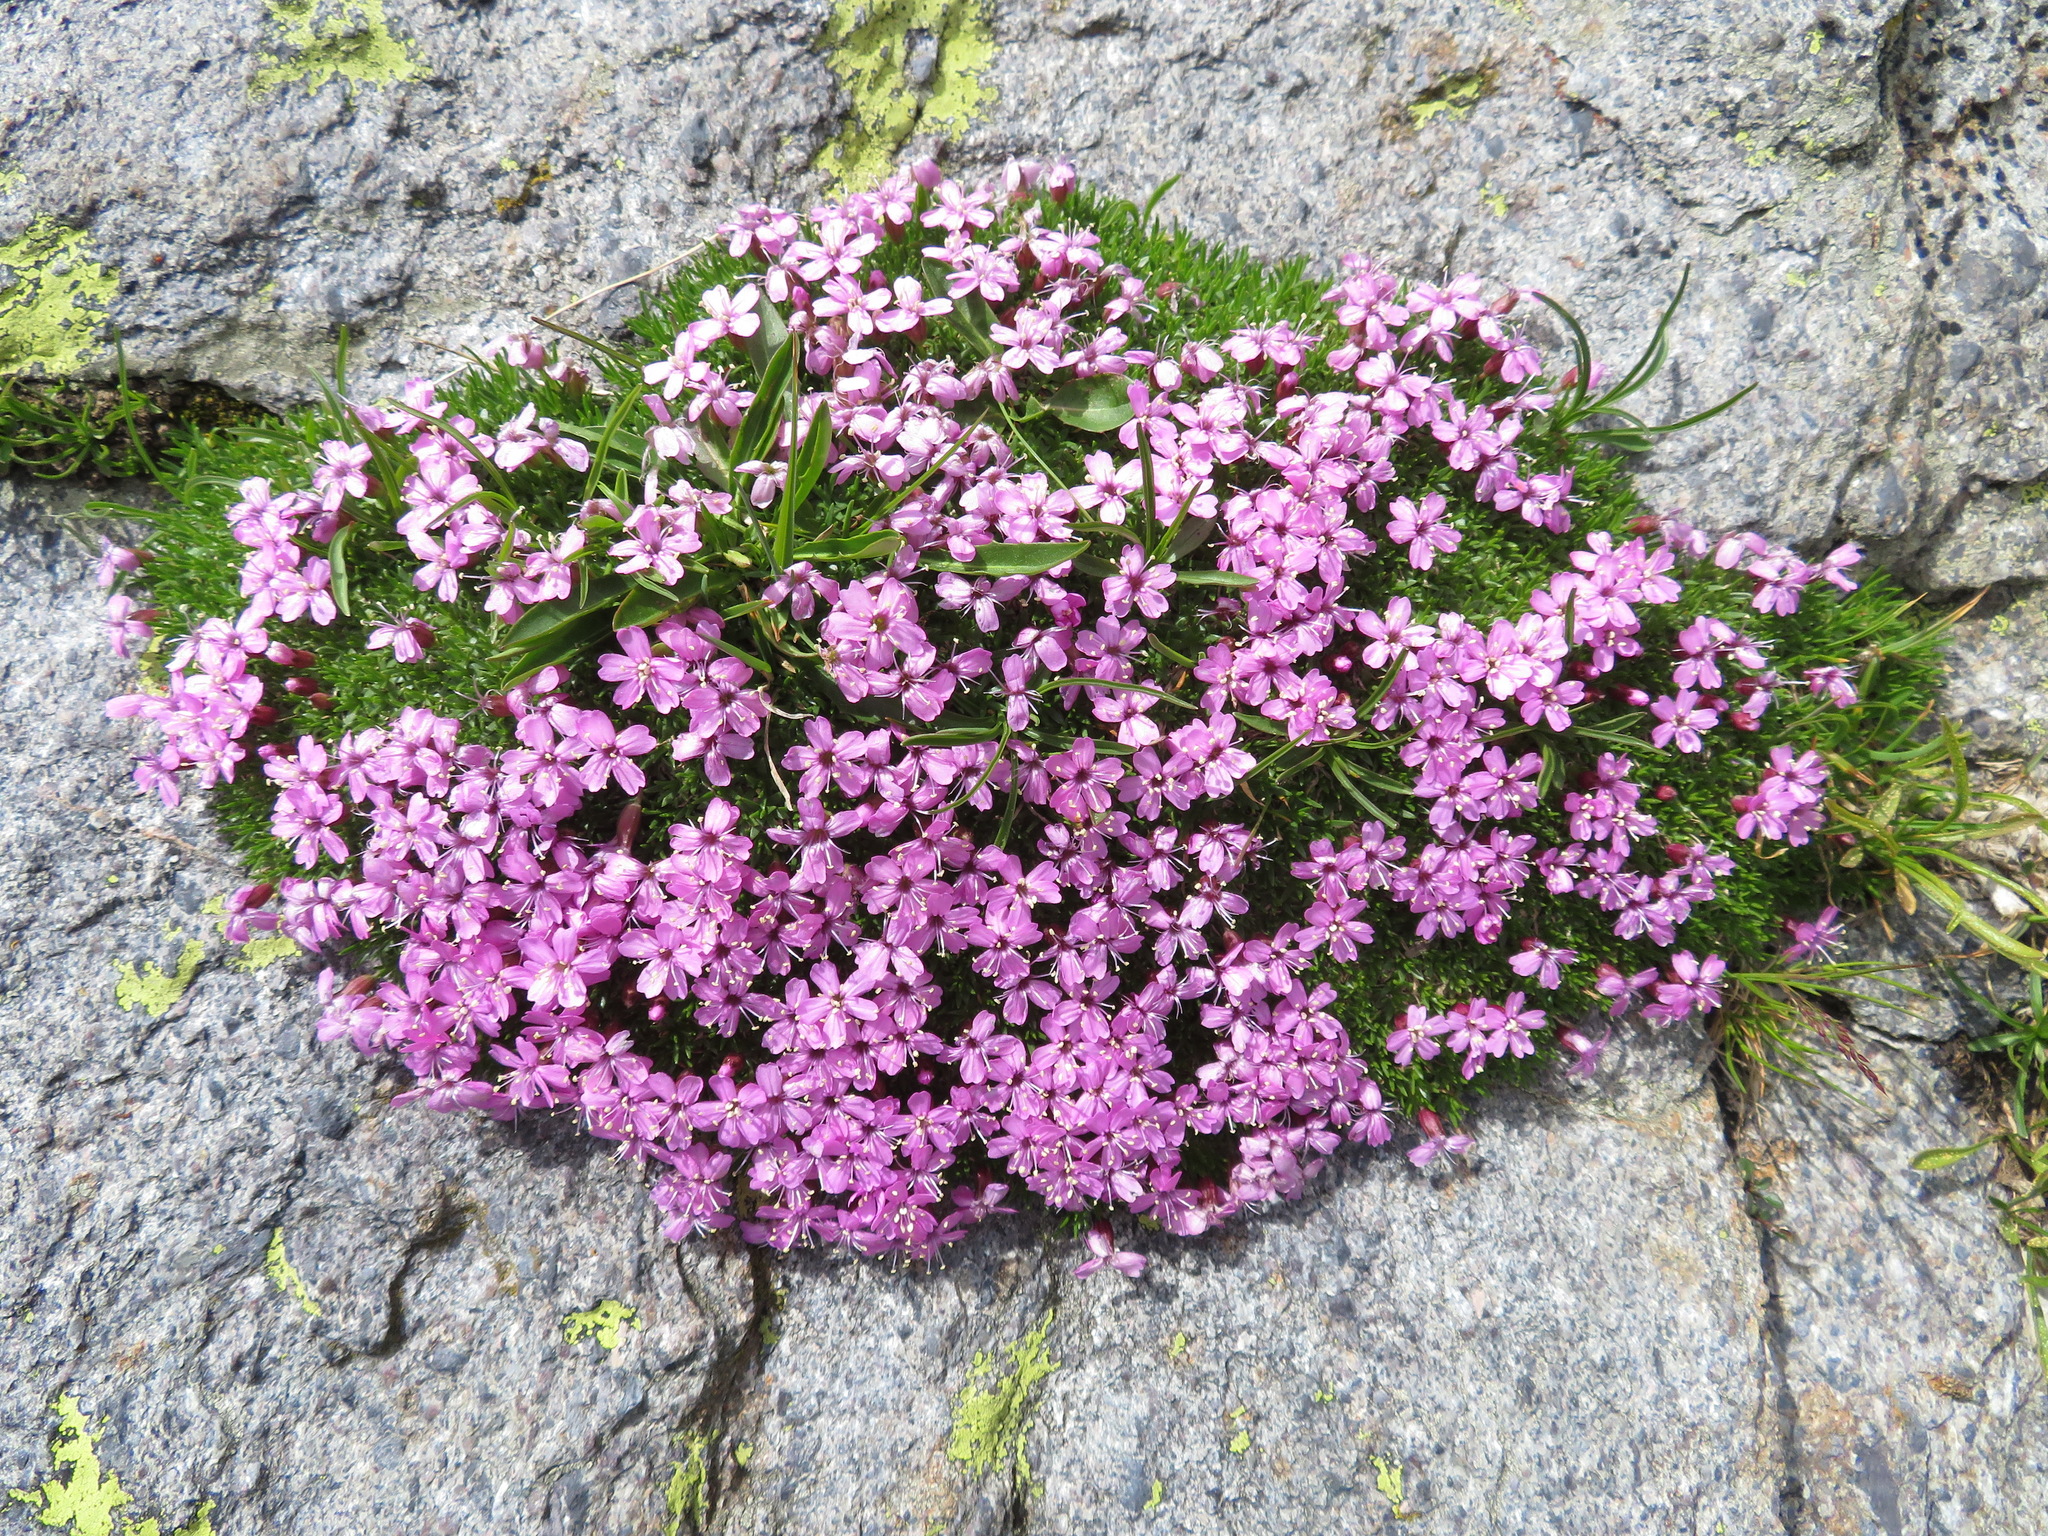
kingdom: Plantae
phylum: Tracheophyta
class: Magnoliopsida
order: Caryophyllales
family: Caryophyllaceae
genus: Silene
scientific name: Silene acaulis
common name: Moss campion
